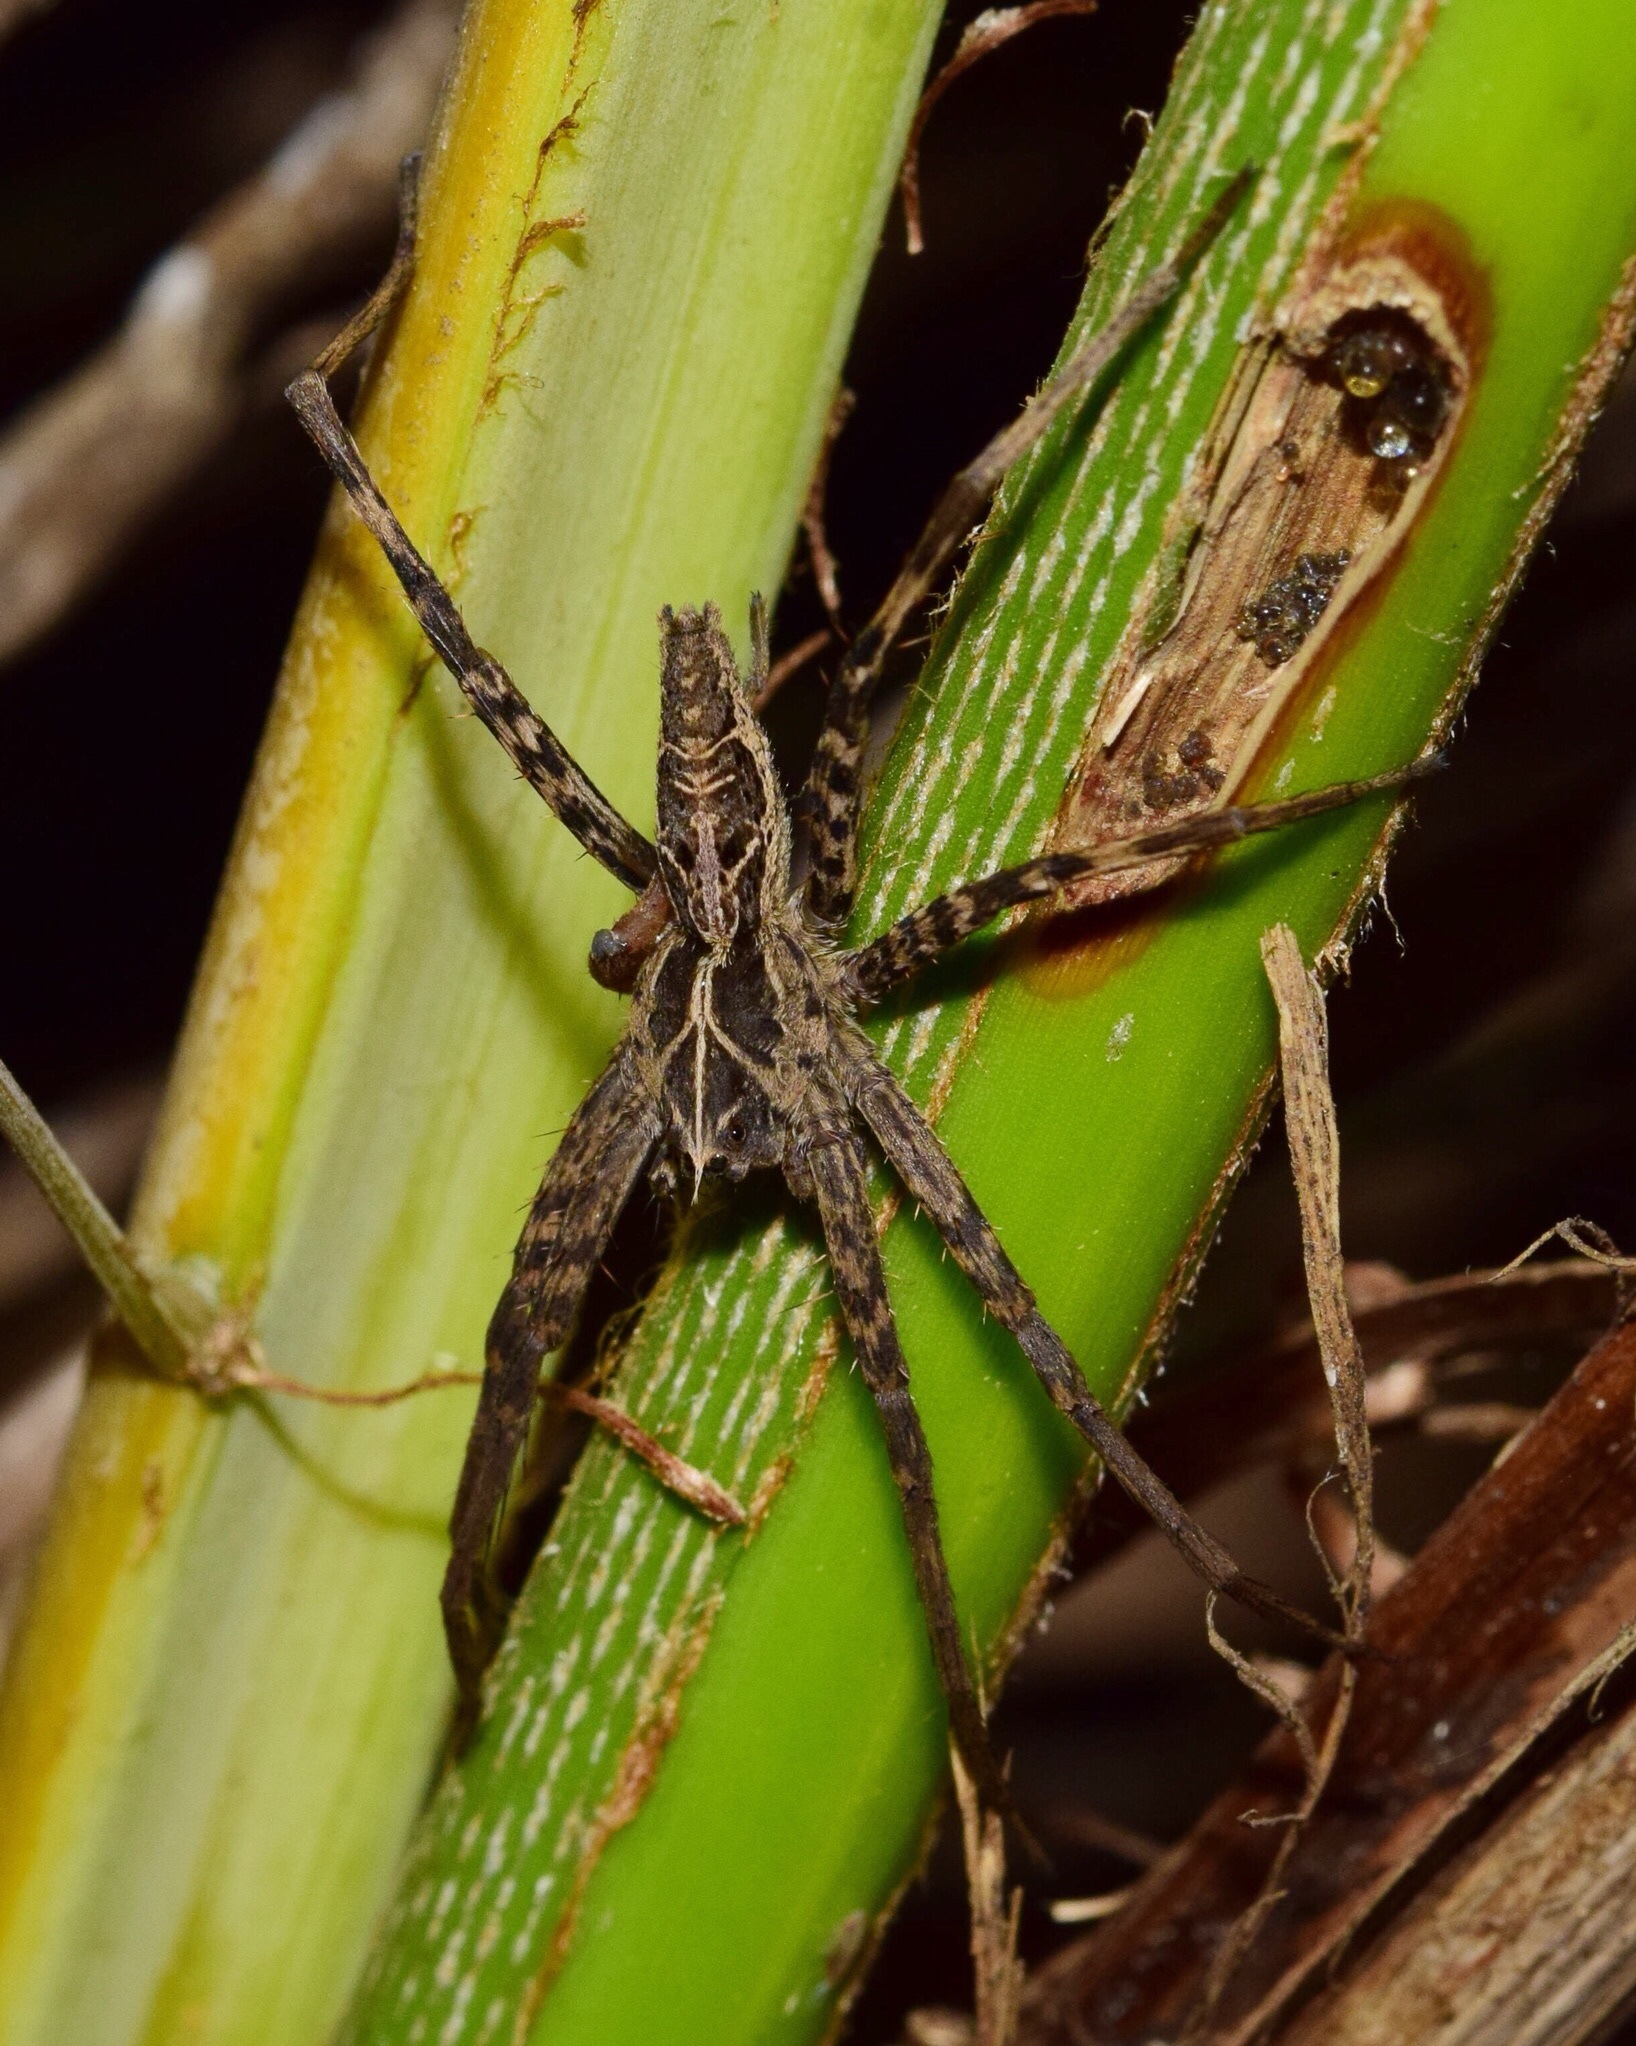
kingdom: Animalia
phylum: Arthropoda
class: Arachnida
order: Araneae
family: Pisauridae
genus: Rothus
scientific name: Rothus vittatus
